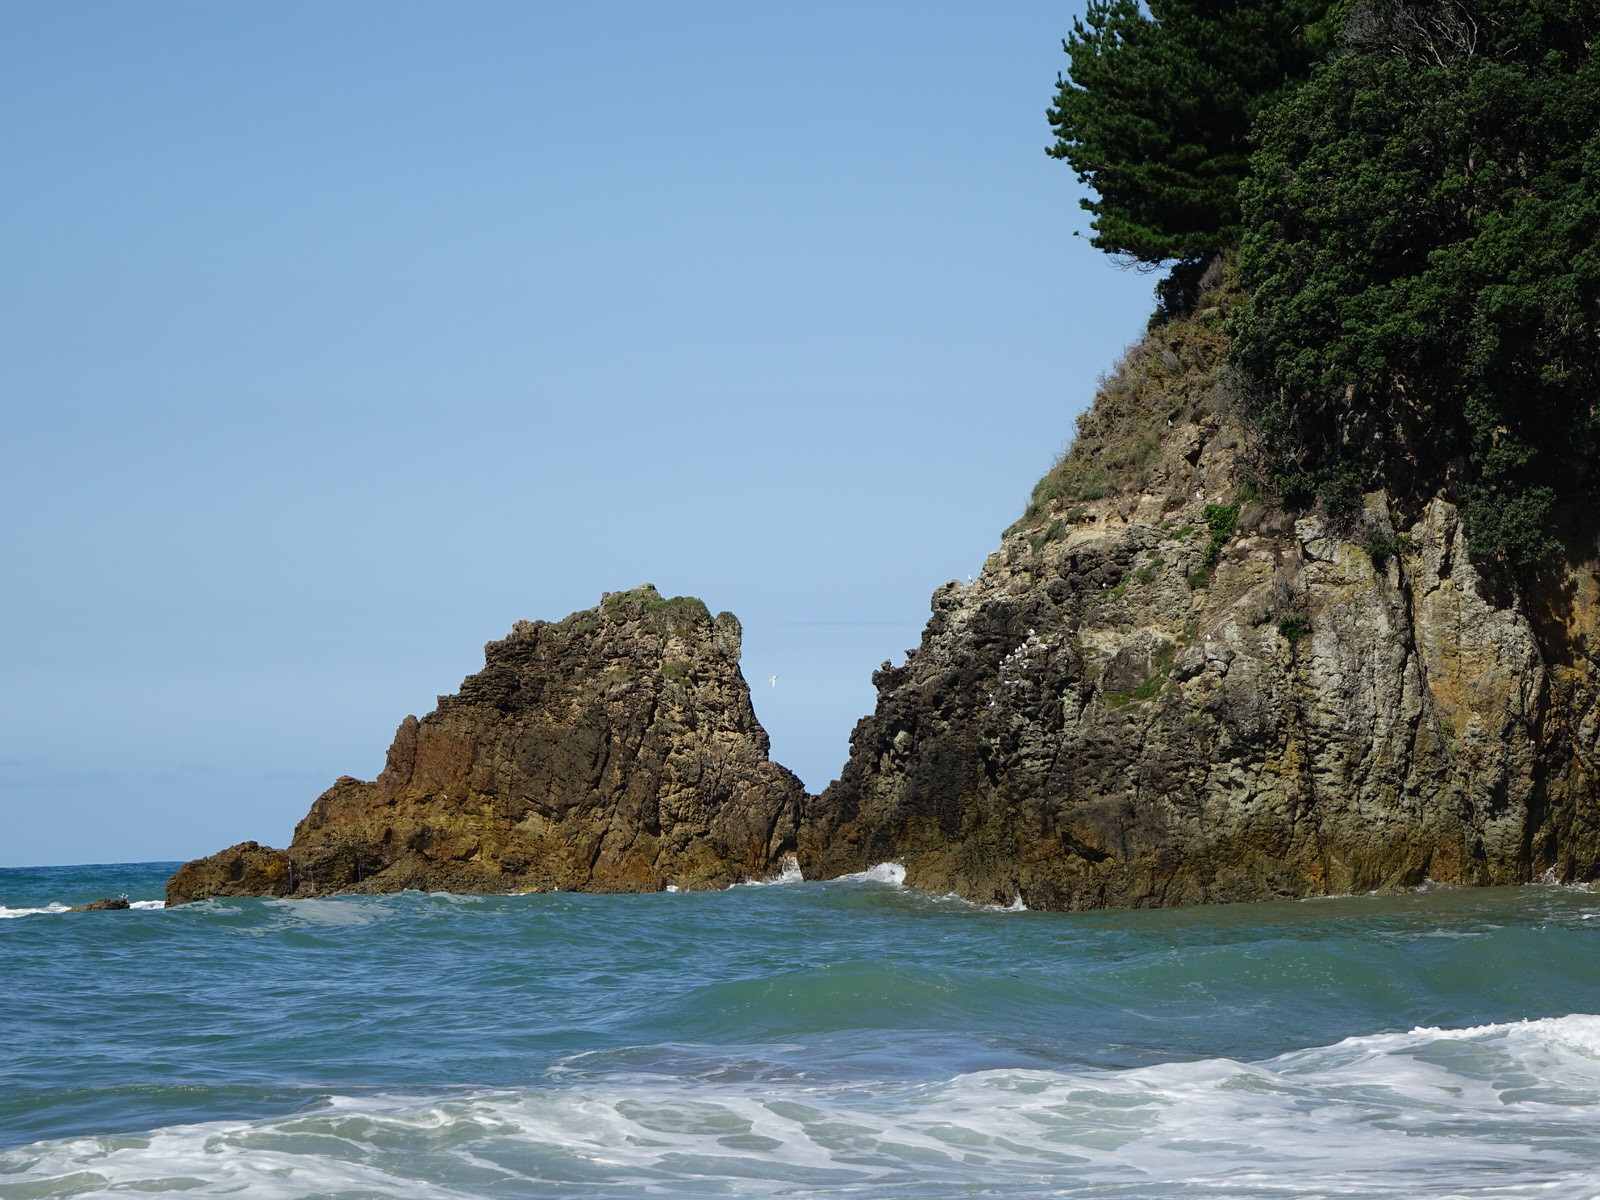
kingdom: Animalia
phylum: Chordata
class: Aves
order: Charadriiformes
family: Laridae
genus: Sterna
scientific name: Sterna striata
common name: White-fronted tern
